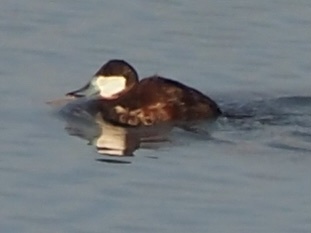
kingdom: Animalia
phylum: Chordata
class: Aves
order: Anseriformes
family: Anatidae
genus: Oxyura
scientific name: Oxyura jamaicensis
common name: Ruddy duck
